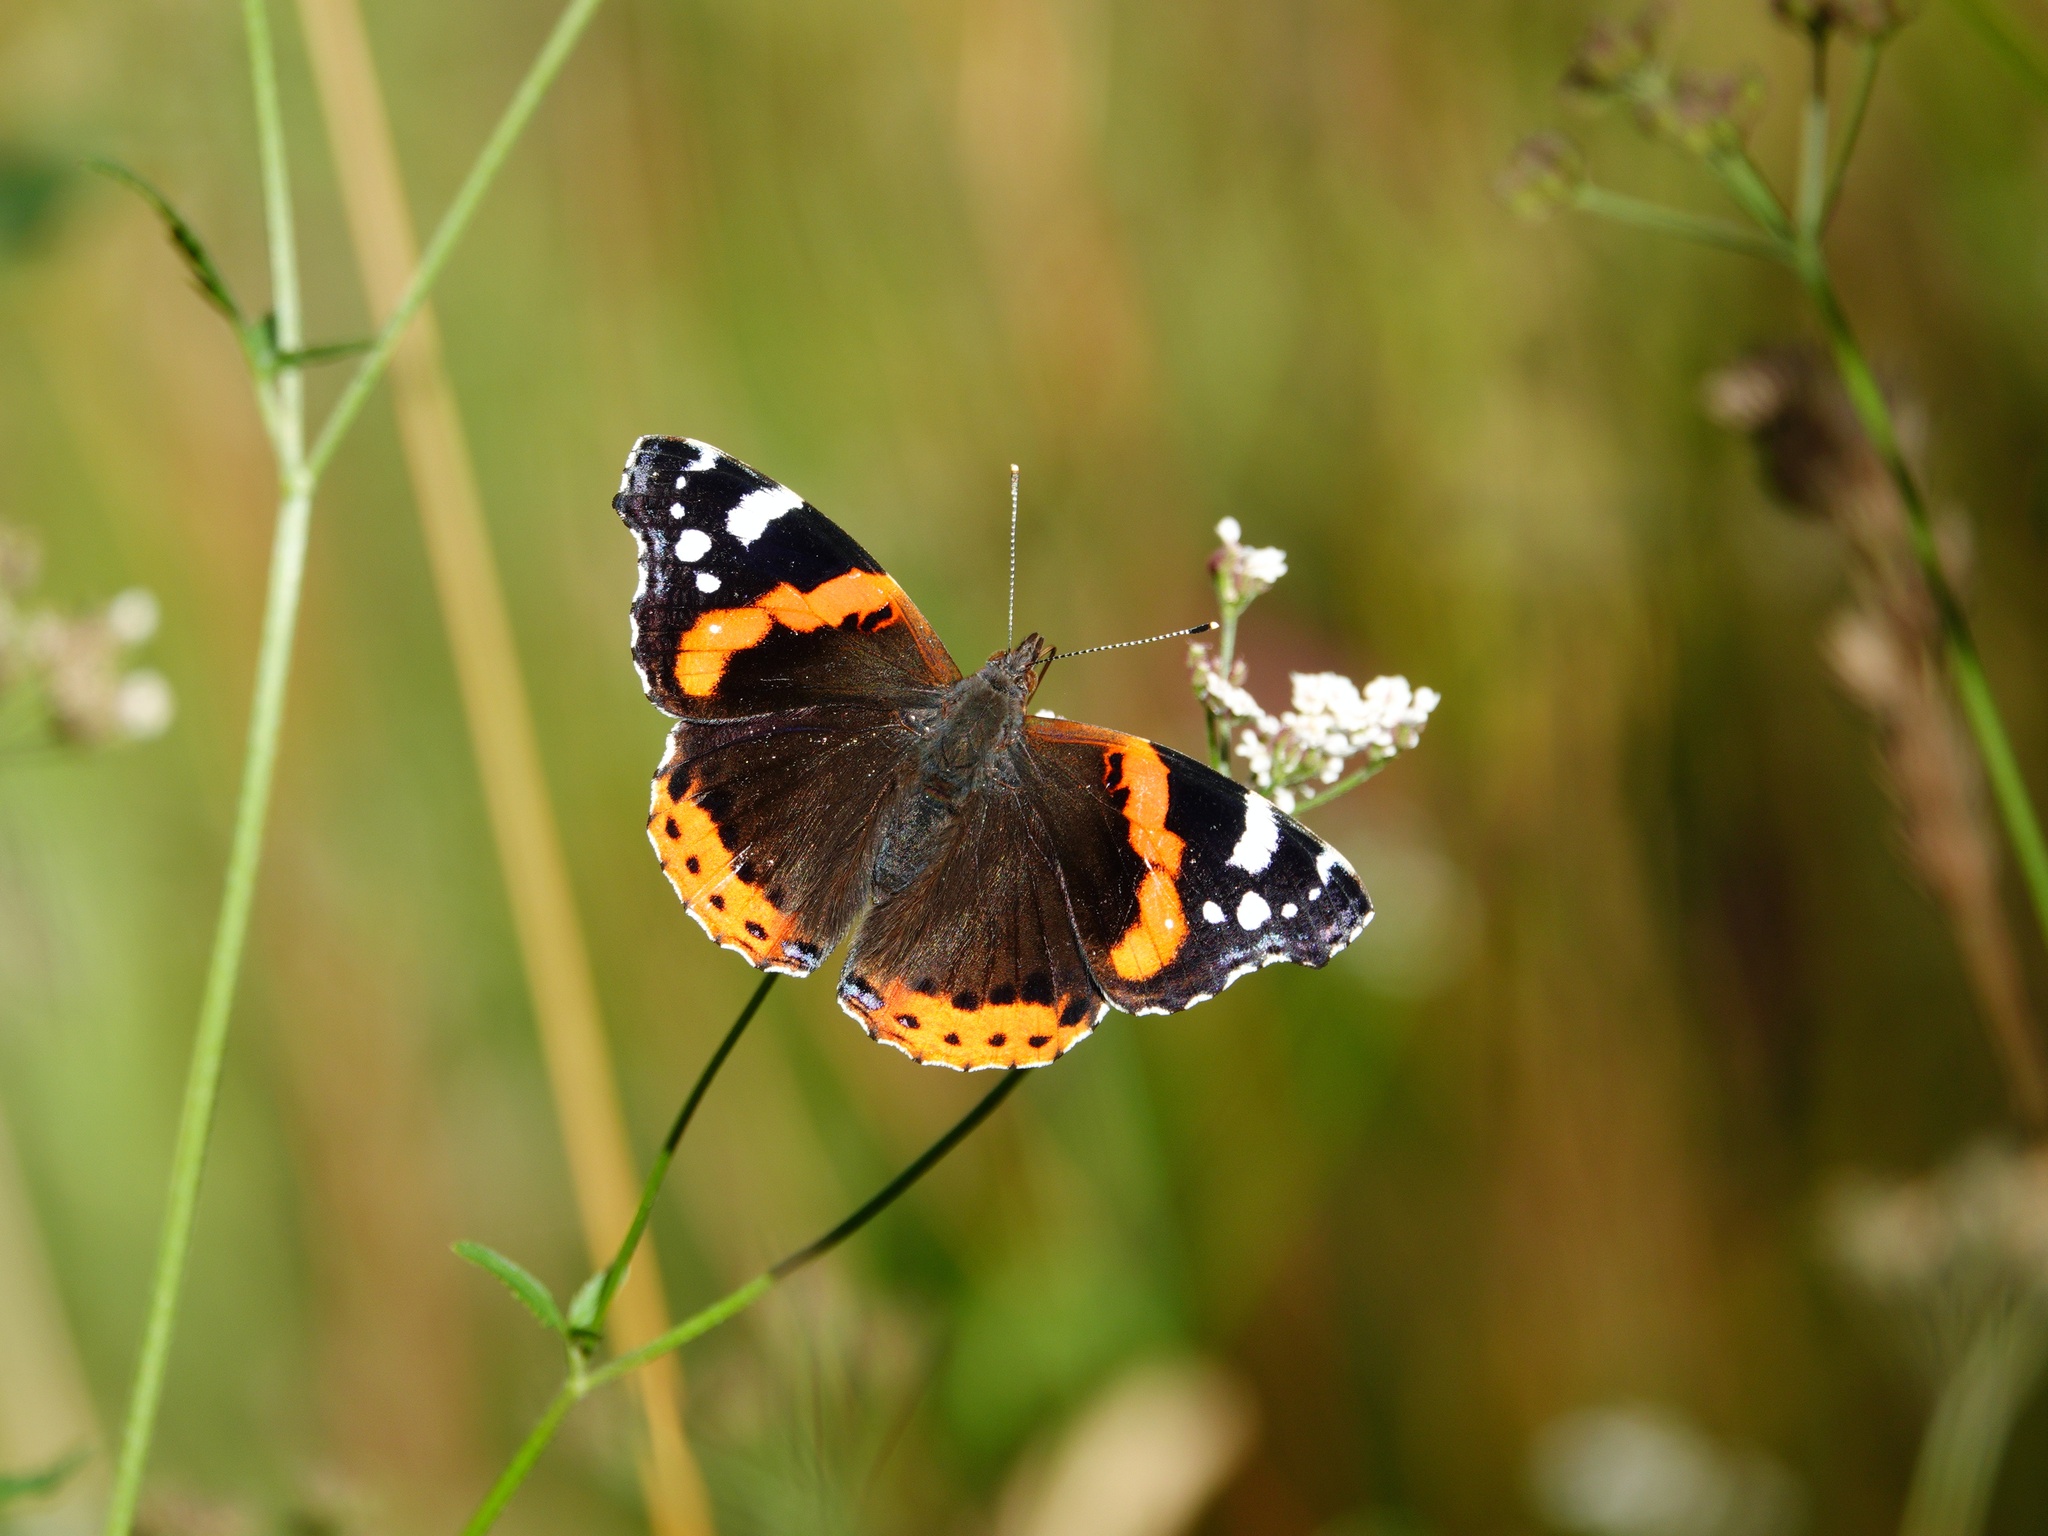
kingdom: Animalia
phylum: Arthropoda
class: Insecta
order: Lepidoptera
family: Nymphalidae
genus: Vanessa
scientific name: Vanessa atalanta
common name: Red admiral
